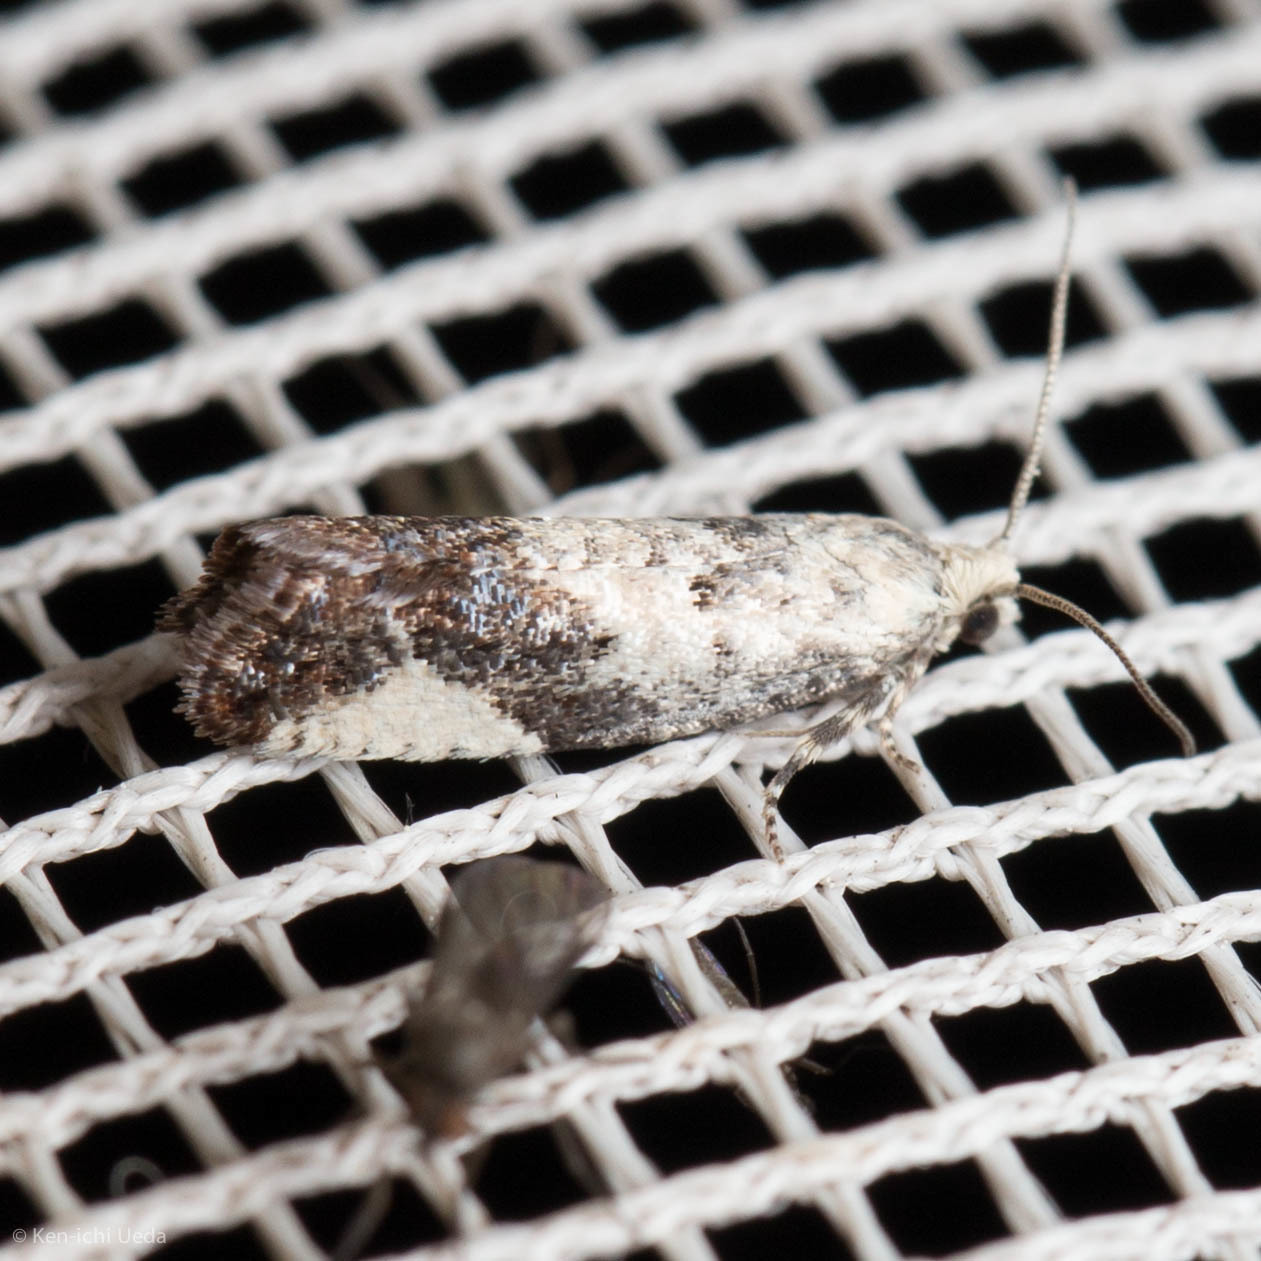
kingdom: Animalia
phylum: Arthropoda
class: Insecta
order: Lepidoptera
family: Tortricidae
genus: Epinotia
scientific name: Epinotia purpuriciliana
